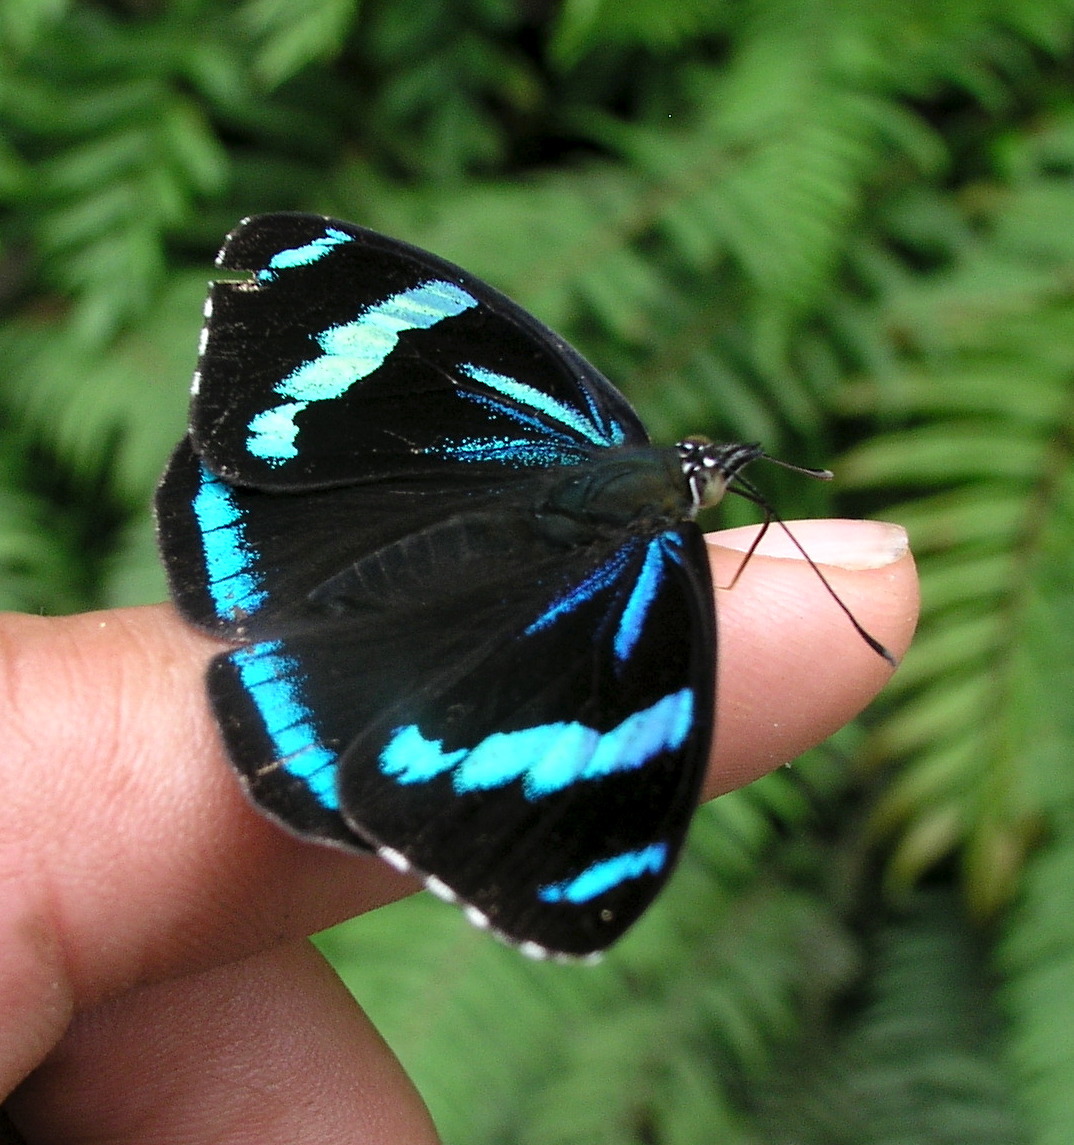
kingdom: Animalia
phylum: Arthropoda
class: Insecta
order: Lepidoptera
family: Nymphalidae
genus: Perisama
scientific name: Perisama bonplandii
